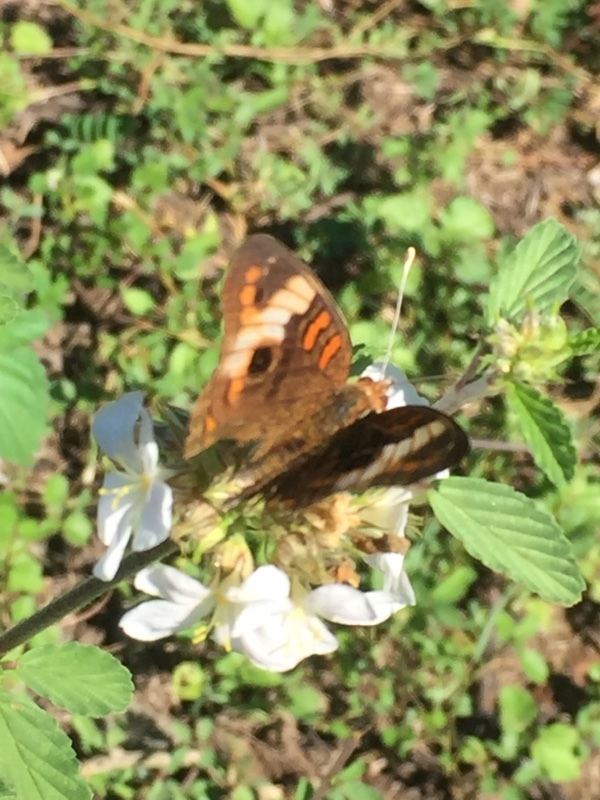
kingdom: Animalia
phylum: Arthropoda
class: Insecta
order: Lepidoptera
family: Nymphalidae
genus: Junonia
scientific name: Junonia lavinia
